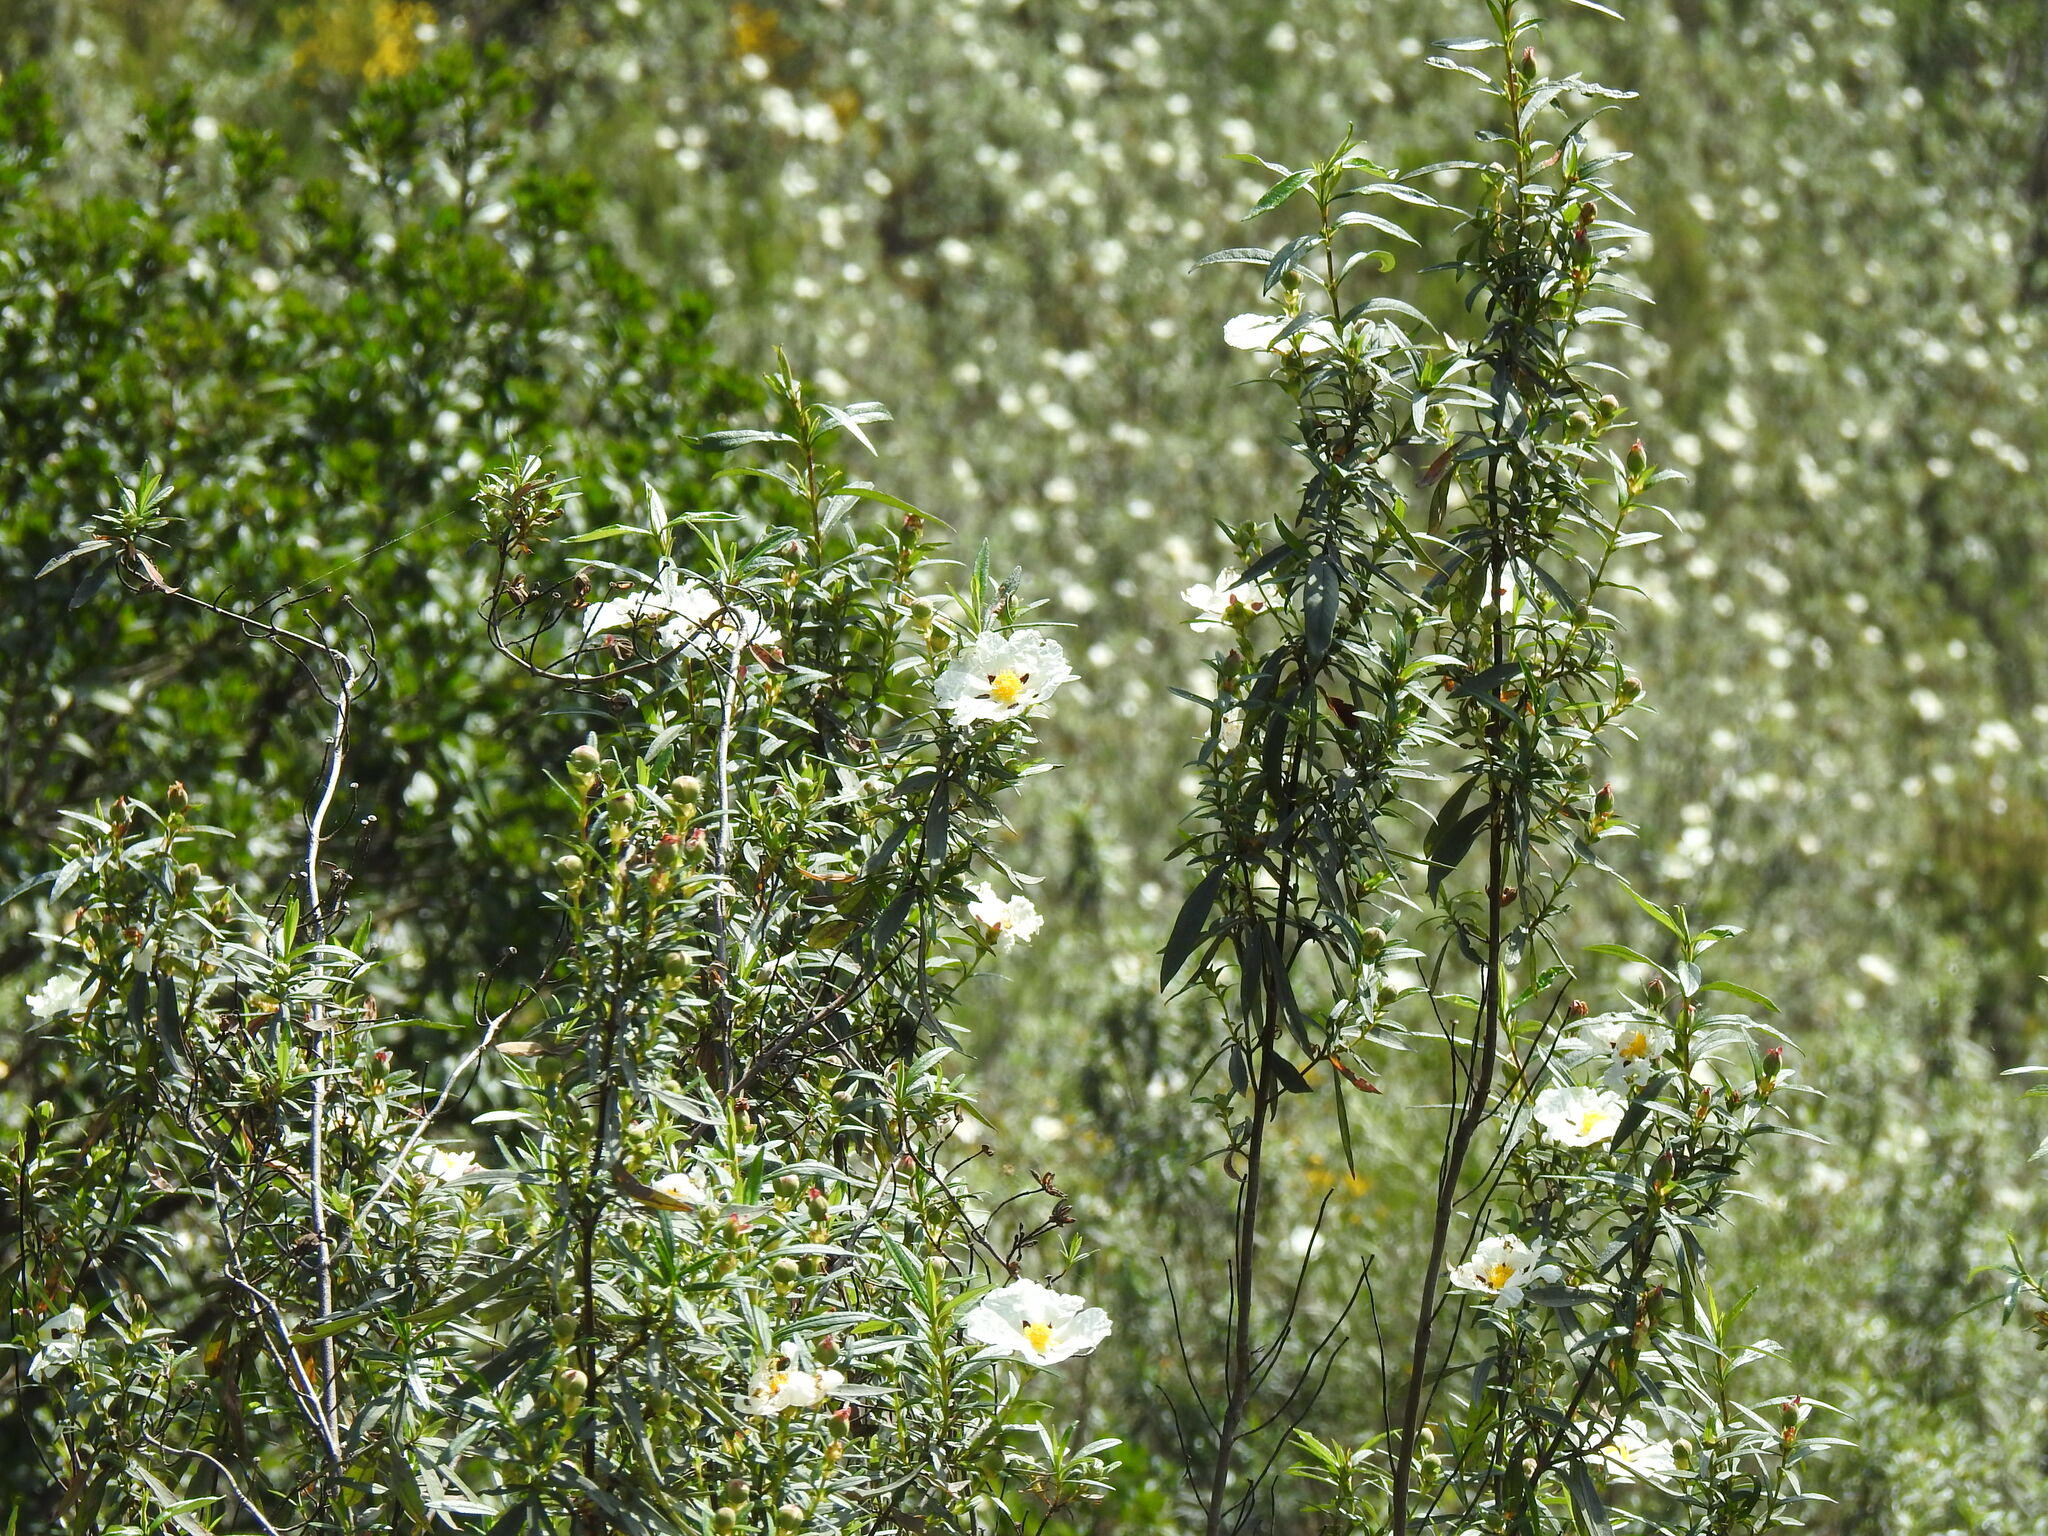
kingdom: Plantae
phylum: Tracheophyta
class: Magnoliopsida
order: Malvales
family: Cistaceae
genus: Cistus
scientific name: Cistus ladanifer
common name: Common gum cistus
